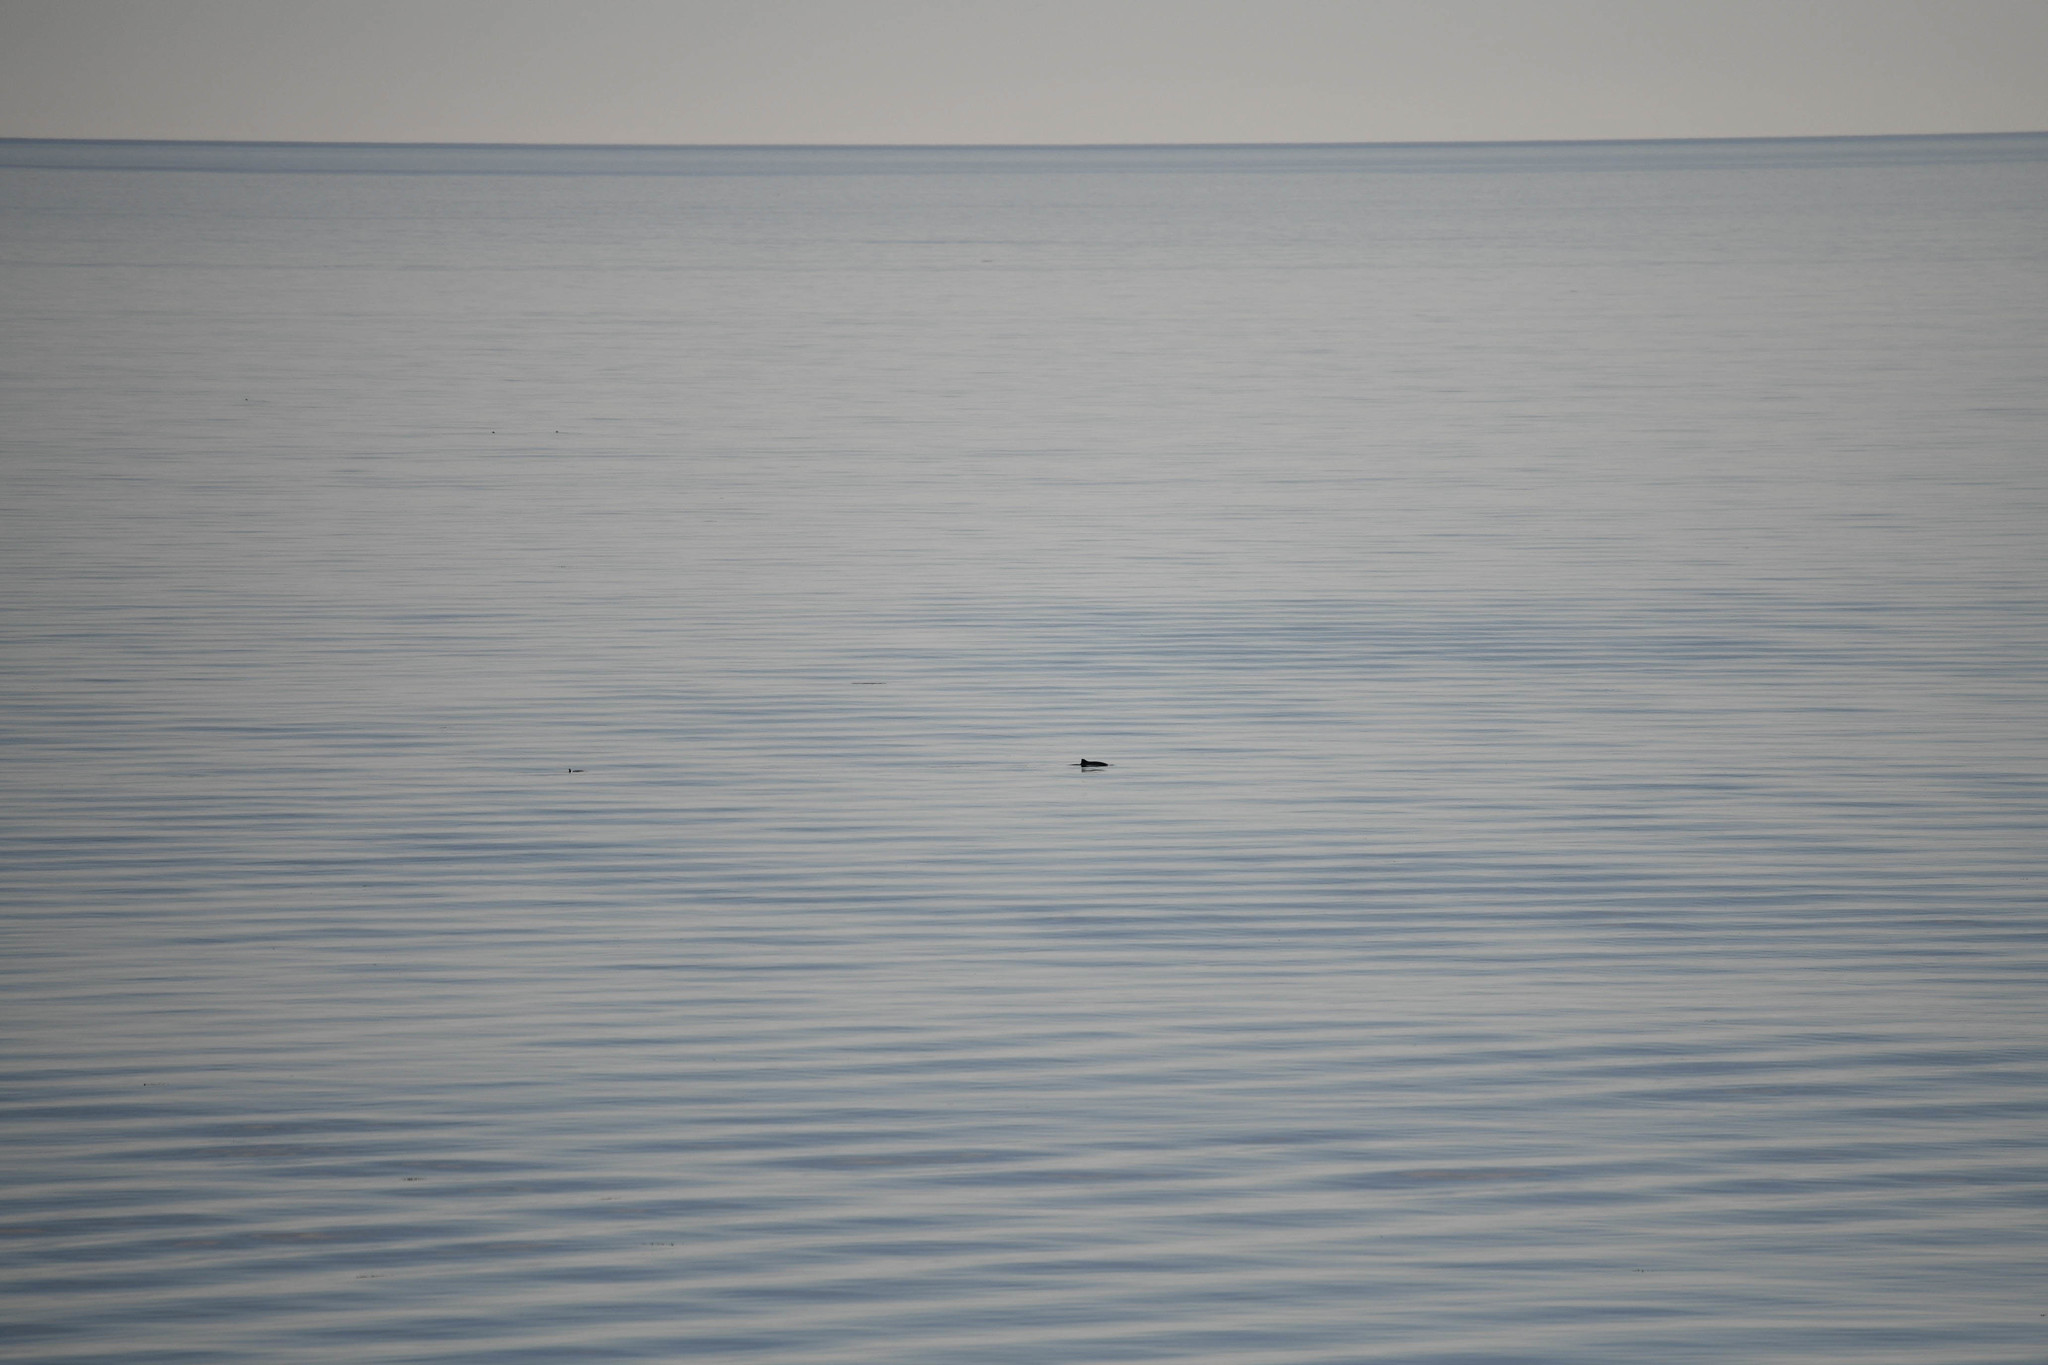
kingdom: Animalia
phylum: Chordata
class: Mammalia
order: Cetacea
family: Phocoenidae
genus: Phocoena
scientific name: Phocoena phocoena
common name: Harbor porpoise
